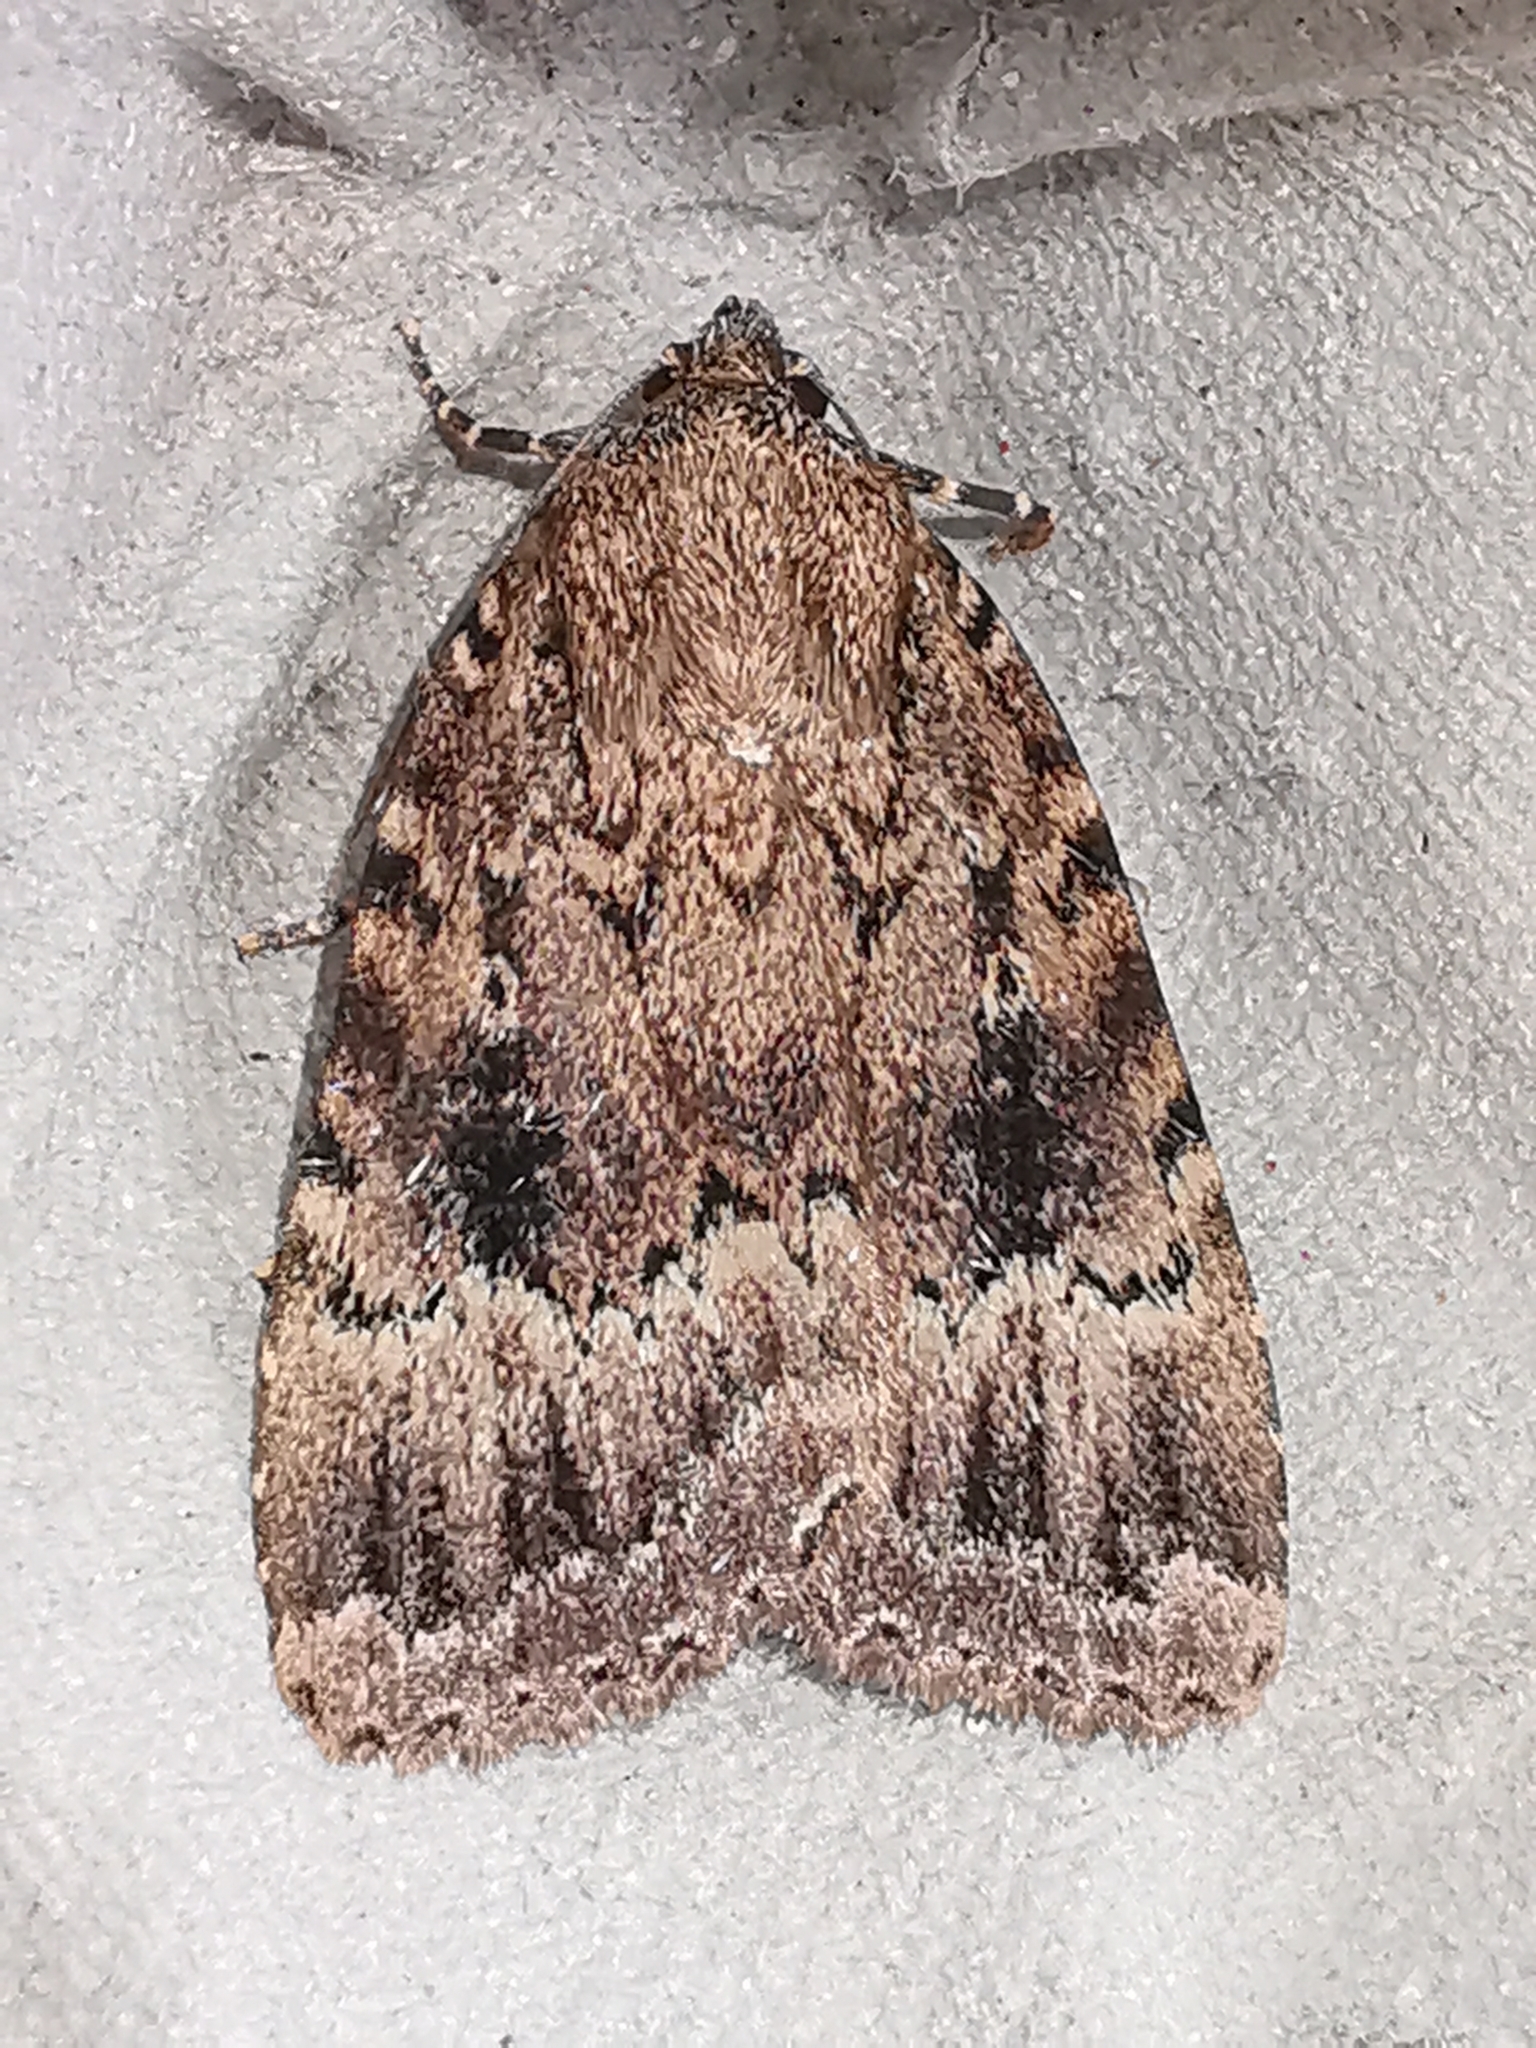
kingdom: Animalia
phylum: Arthropoda
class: Insecta
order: Lepidoptera
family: Noctuidae
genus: Amphipyra
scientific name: Amphipyra pyramidea
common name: Copper underwing
